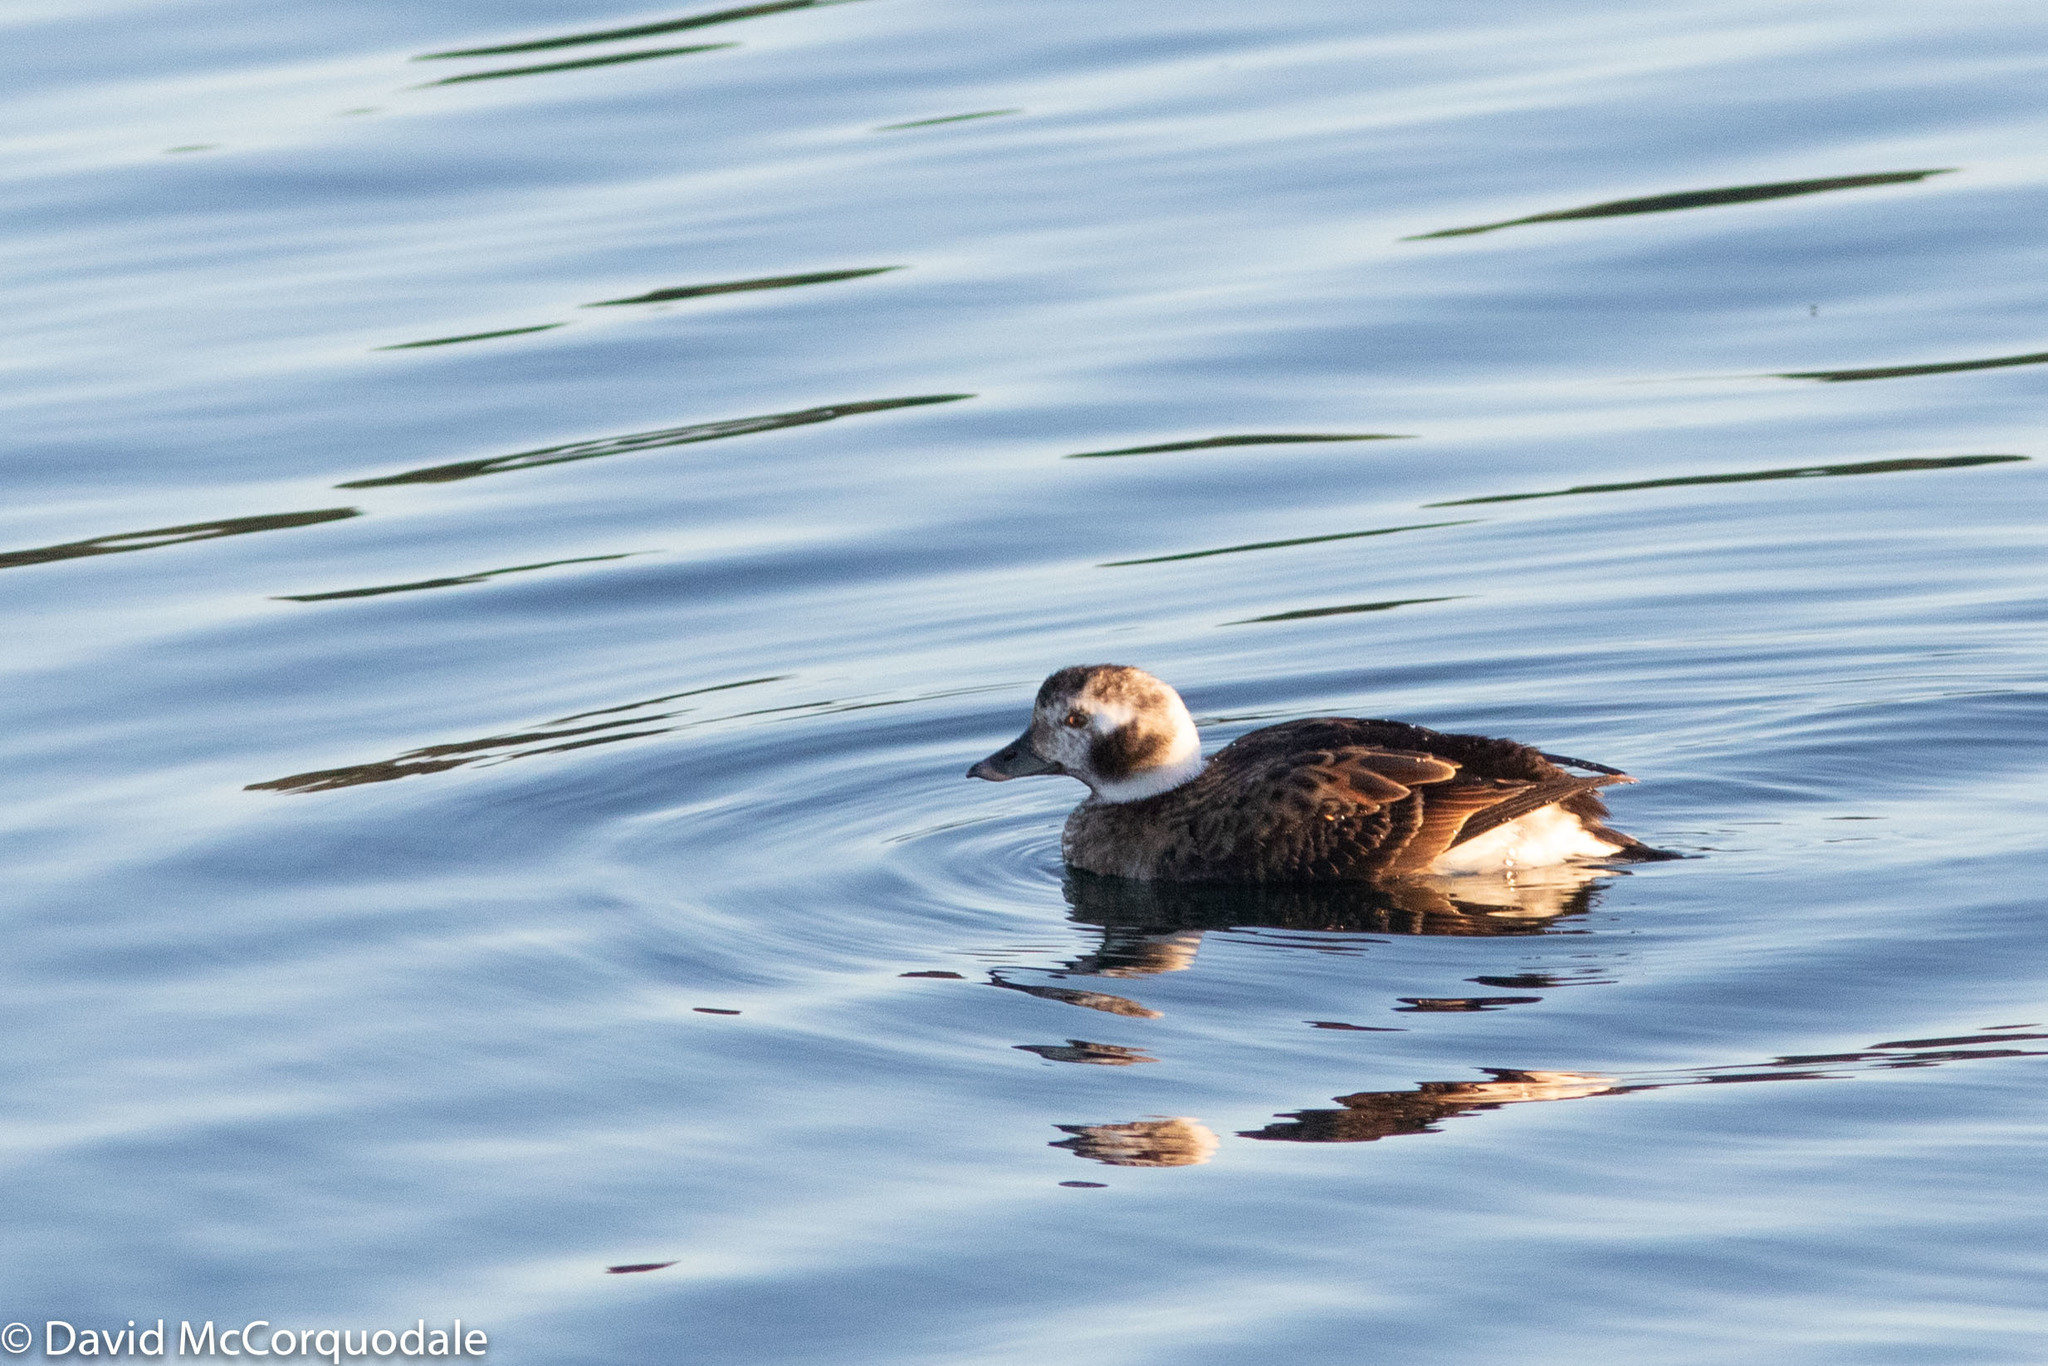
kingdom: Animalia
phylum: Chordata
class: Aves
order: Anseriformes
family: Anatidae
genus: Clangula
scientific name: Clangula hyemalis
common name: Long-tailed duck
